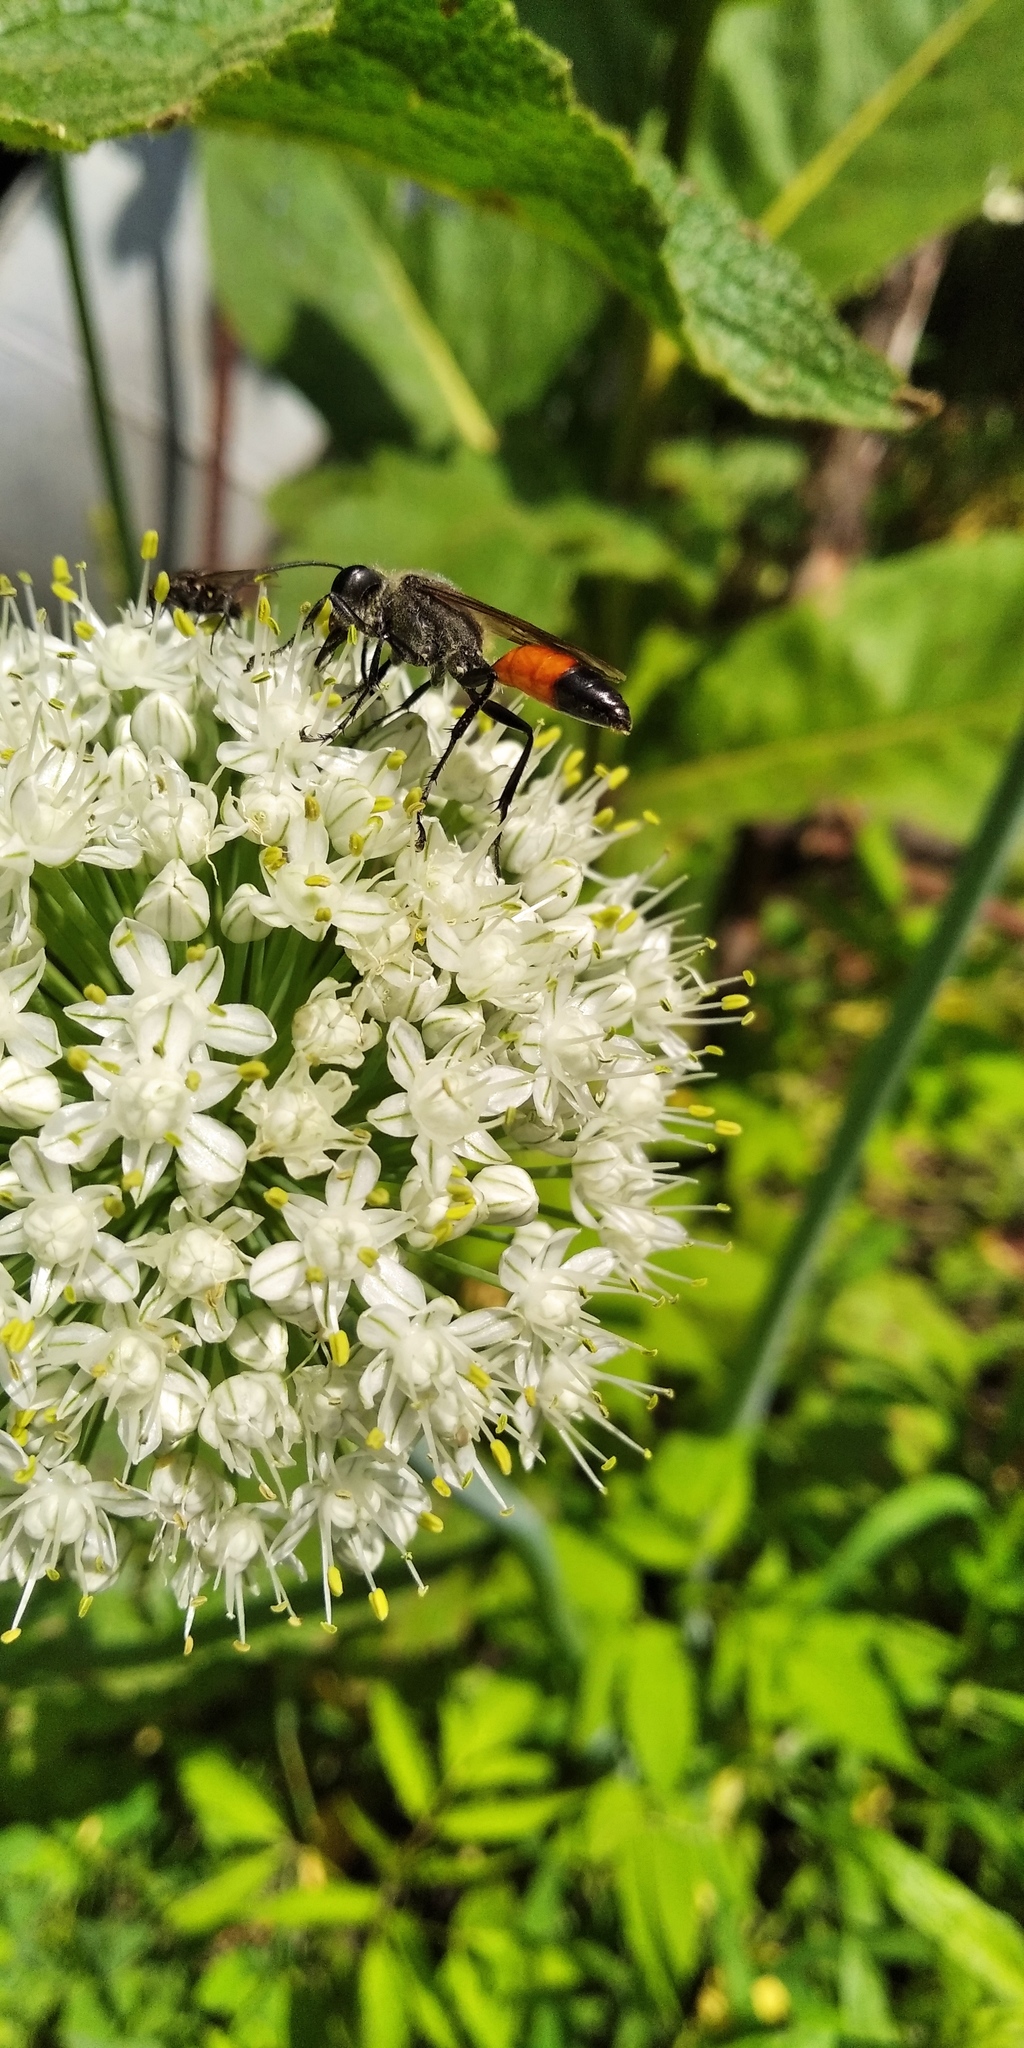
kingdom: Animalia
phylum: Arthropoda
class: Insecta
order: Hymenoptera
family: Sphecidae
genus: Sphex
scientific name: Sphex funerarius
